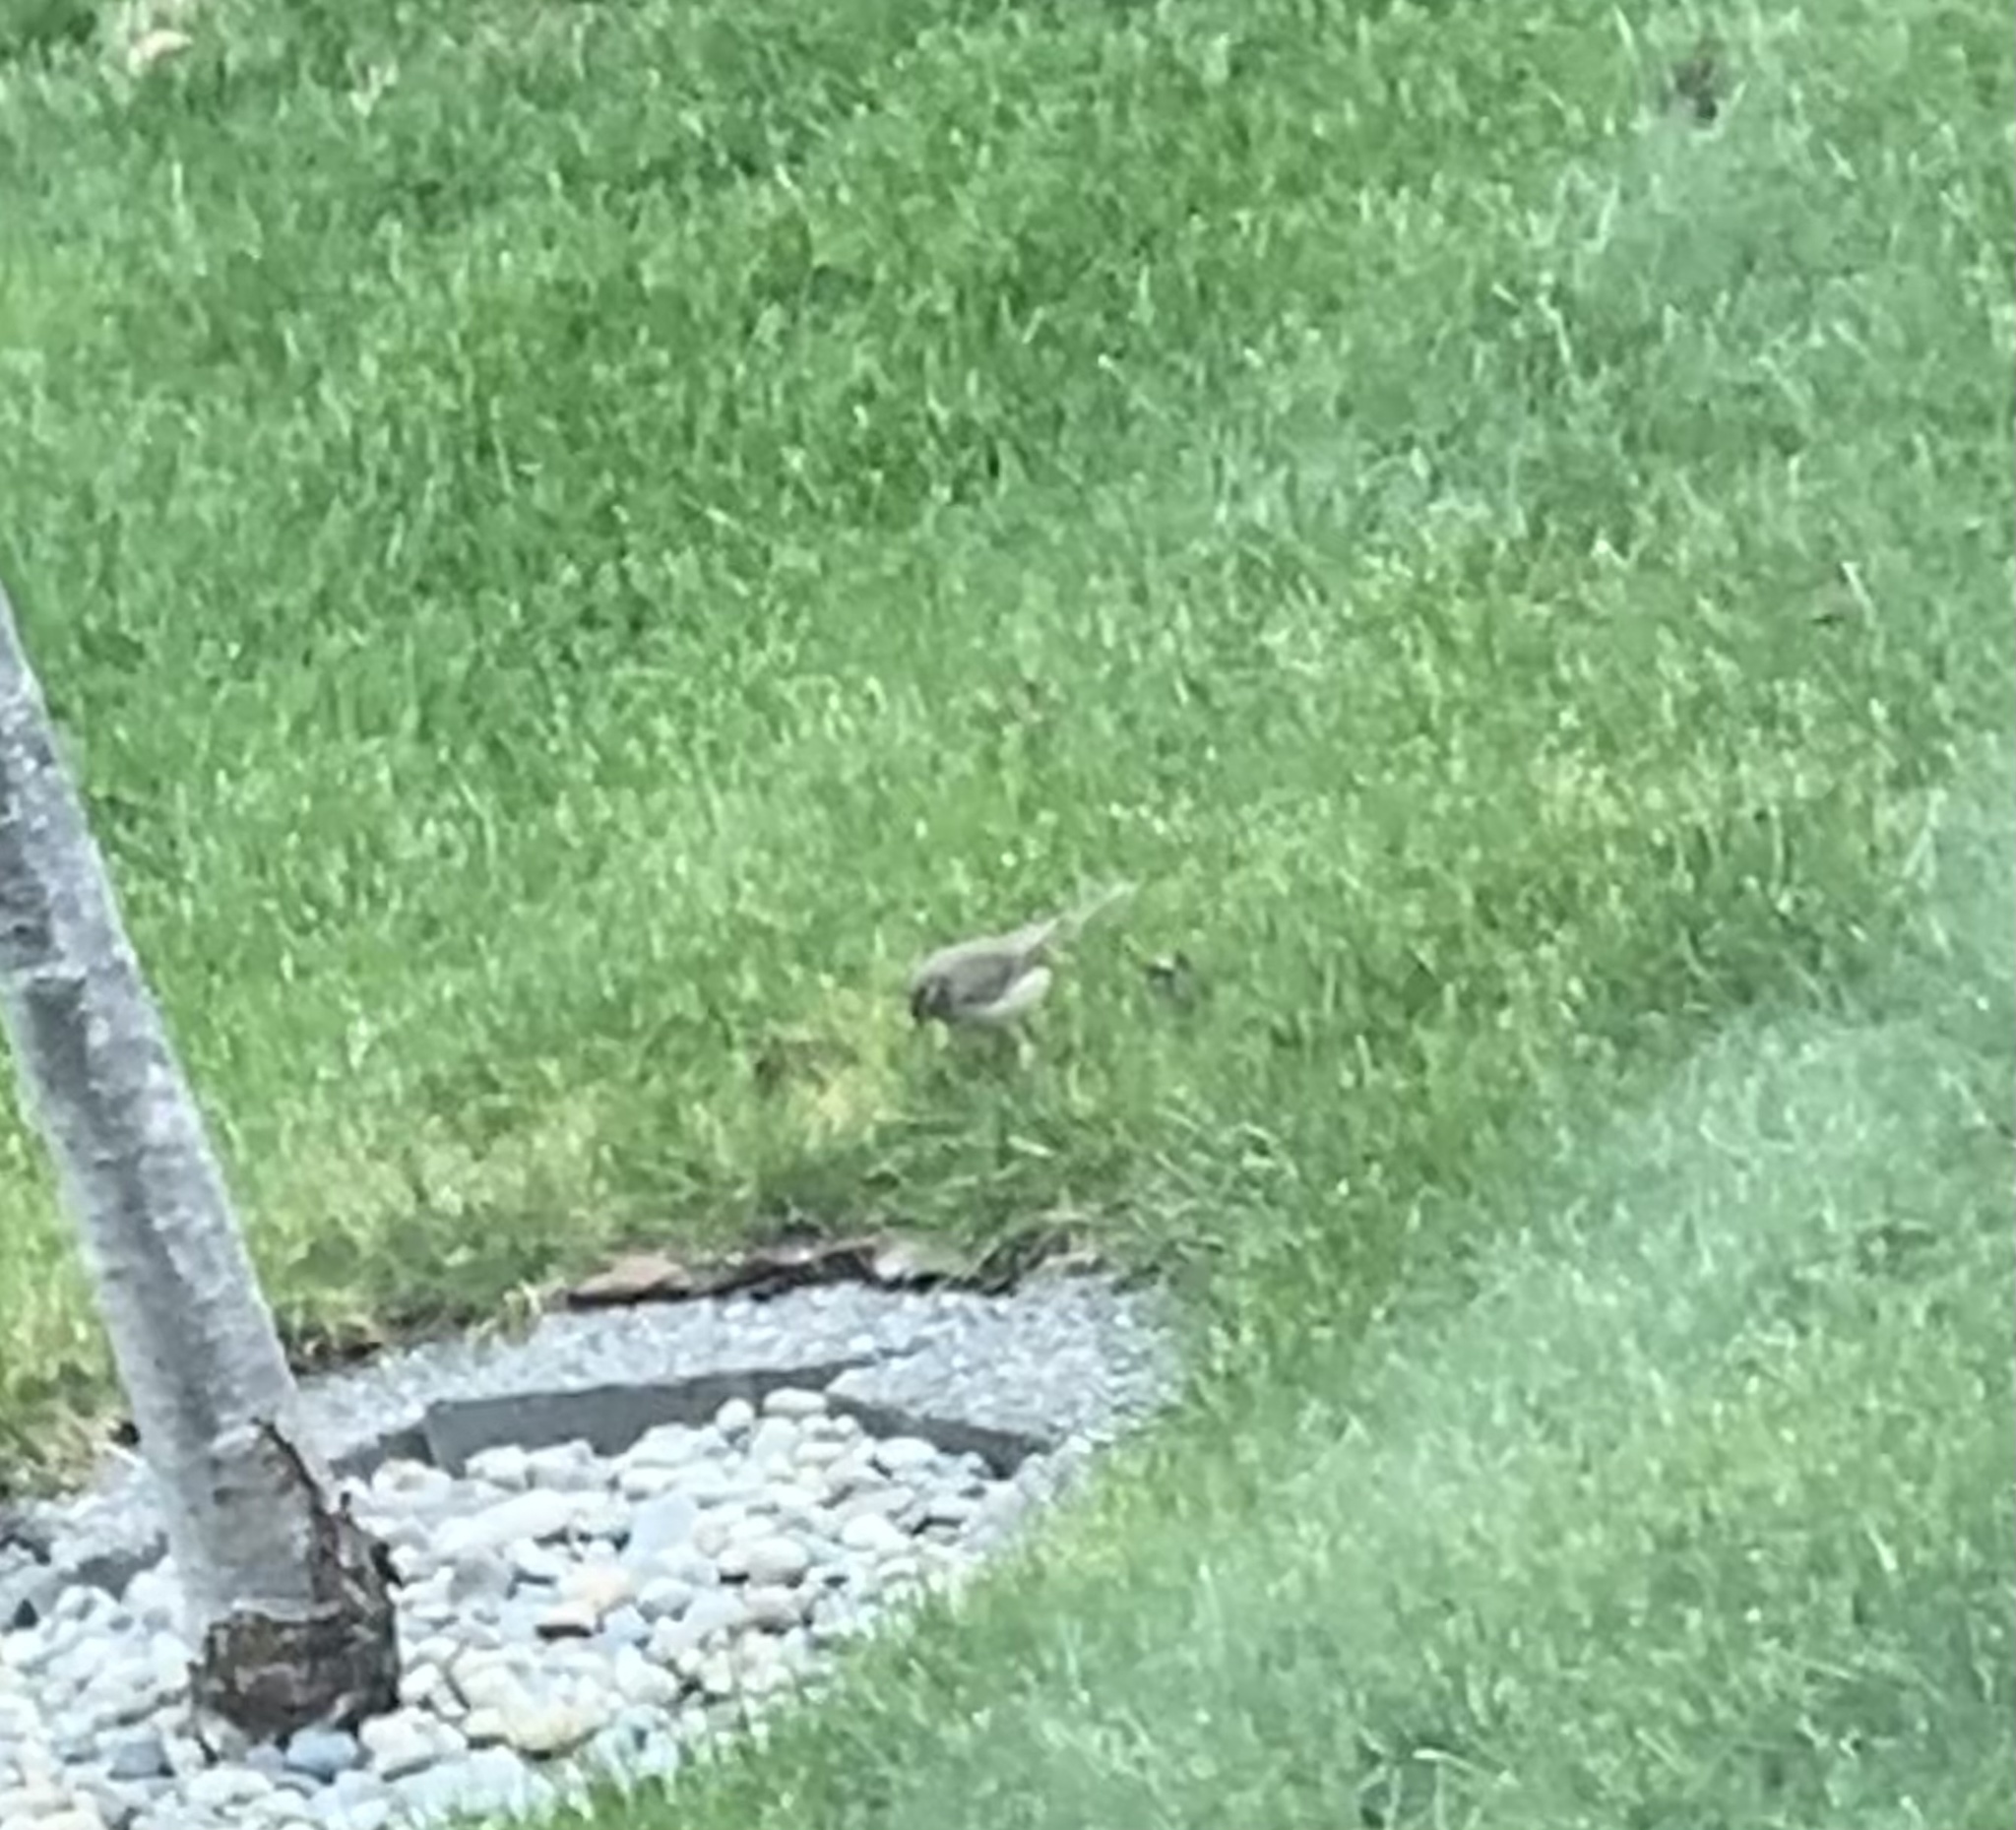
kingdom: Animalia
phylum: Chordata
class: Aves
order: Passeriformes
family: Passerellidae
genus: Zonotrichia
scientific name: Zonotrichia albicollis
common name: White-throated sparrow
